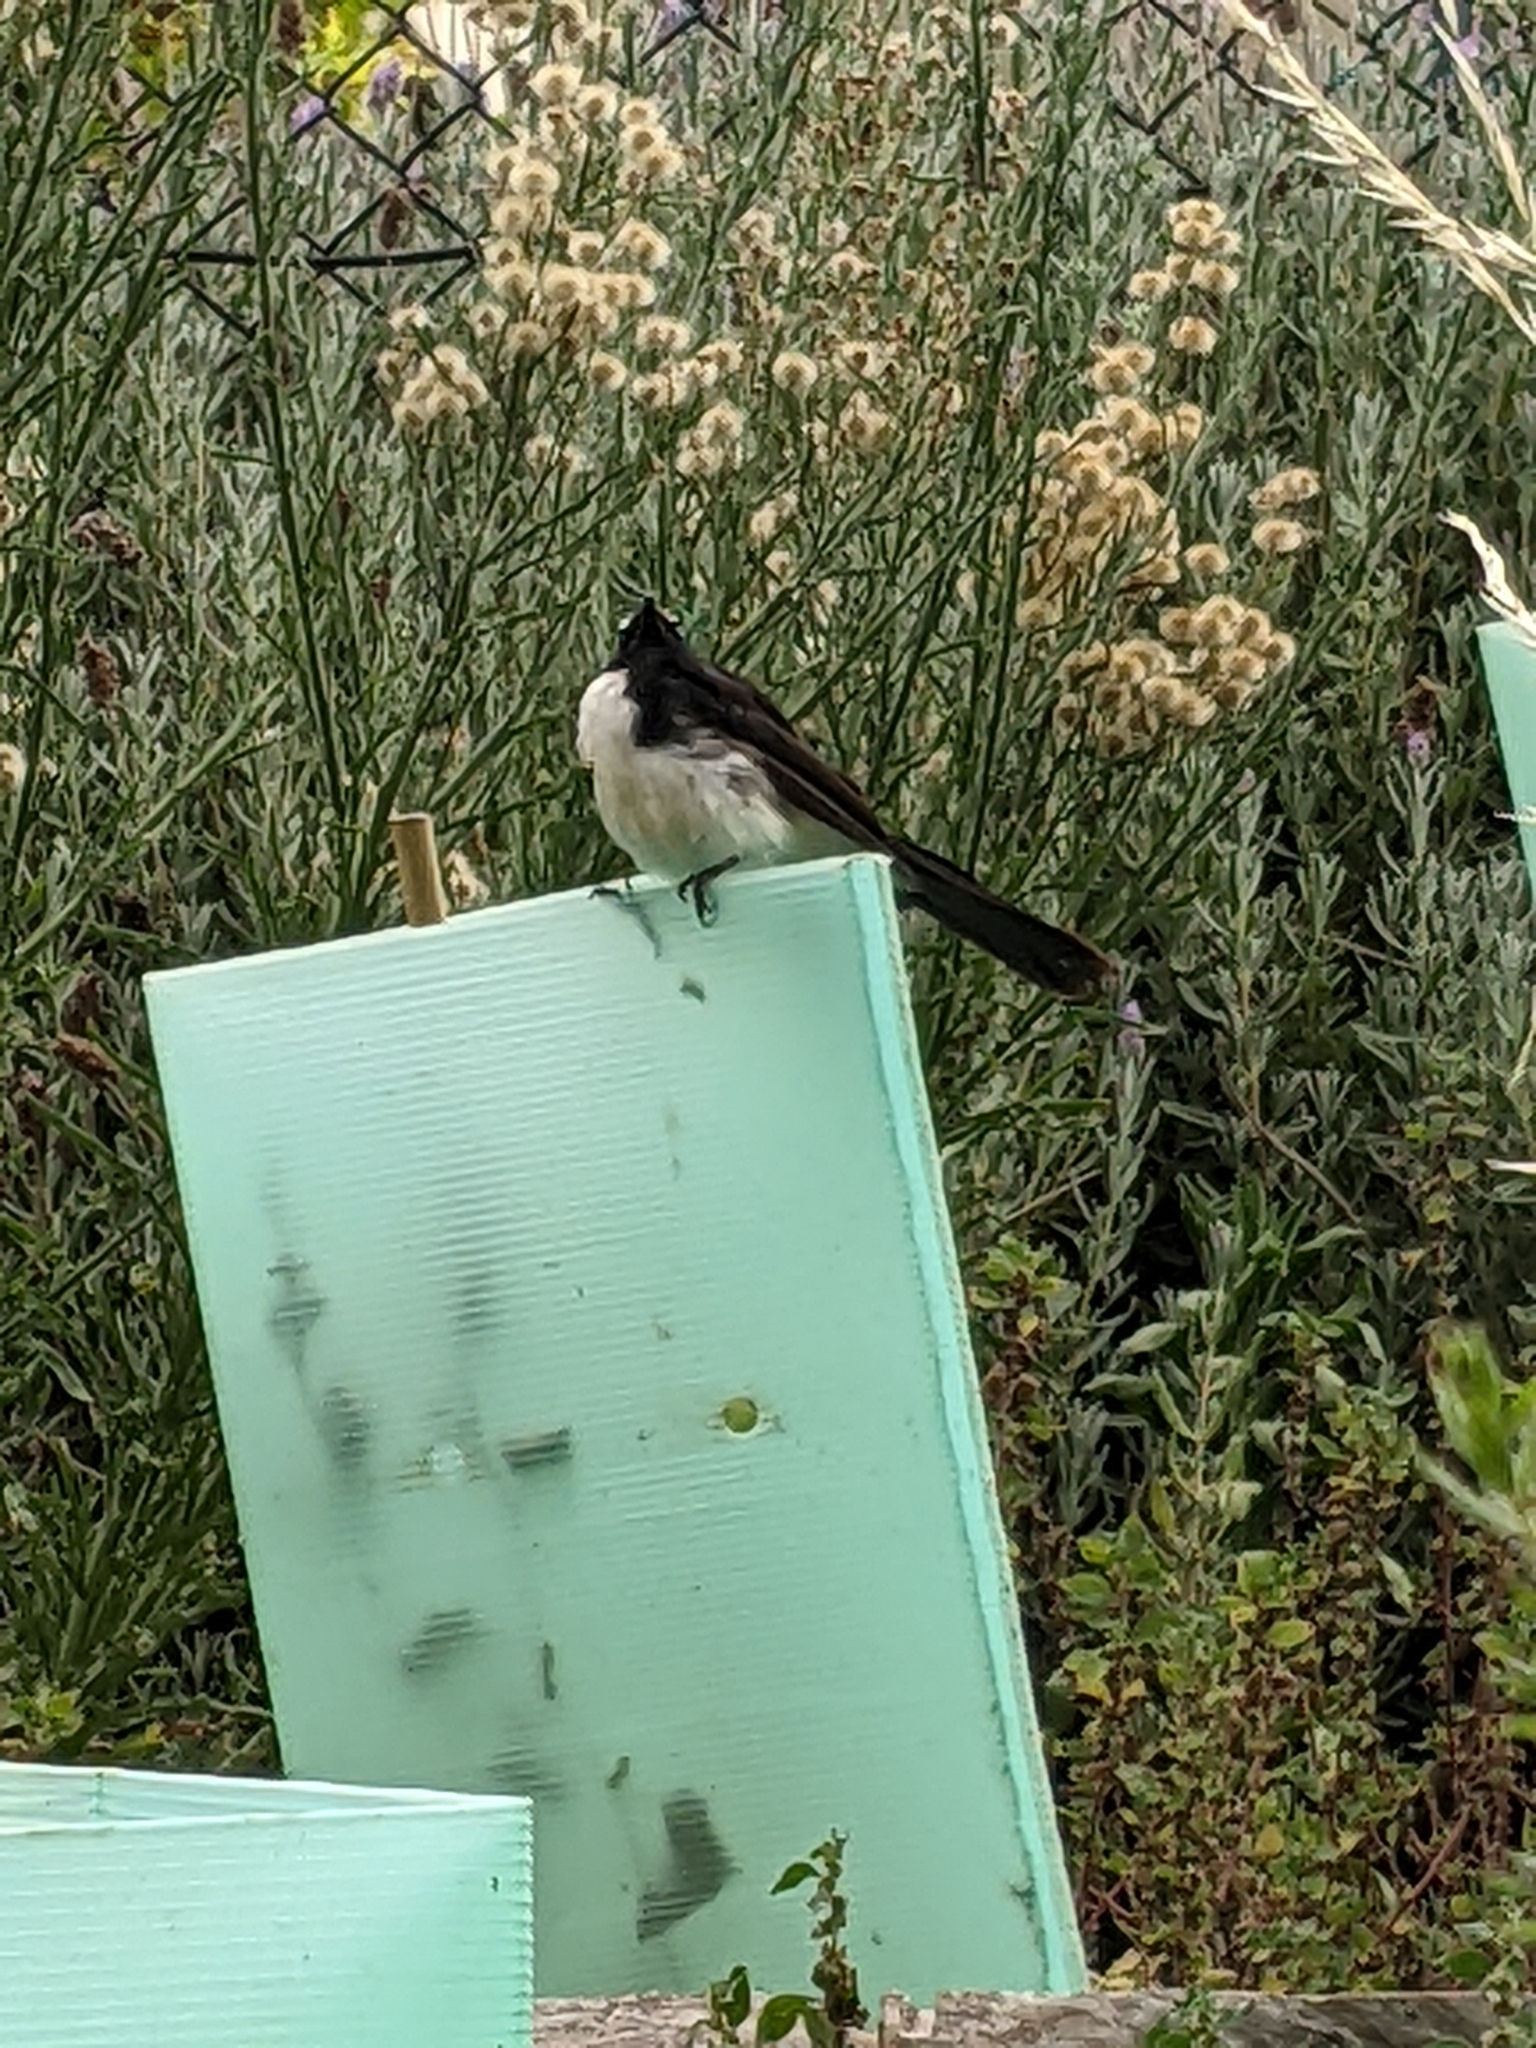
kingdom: Animalia
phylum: Chordata
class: Aves
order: Passeriformes
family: Rhipiduridae
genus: Rhipidura
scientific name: Rhipidura leucophrys
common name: Willie wagtail
